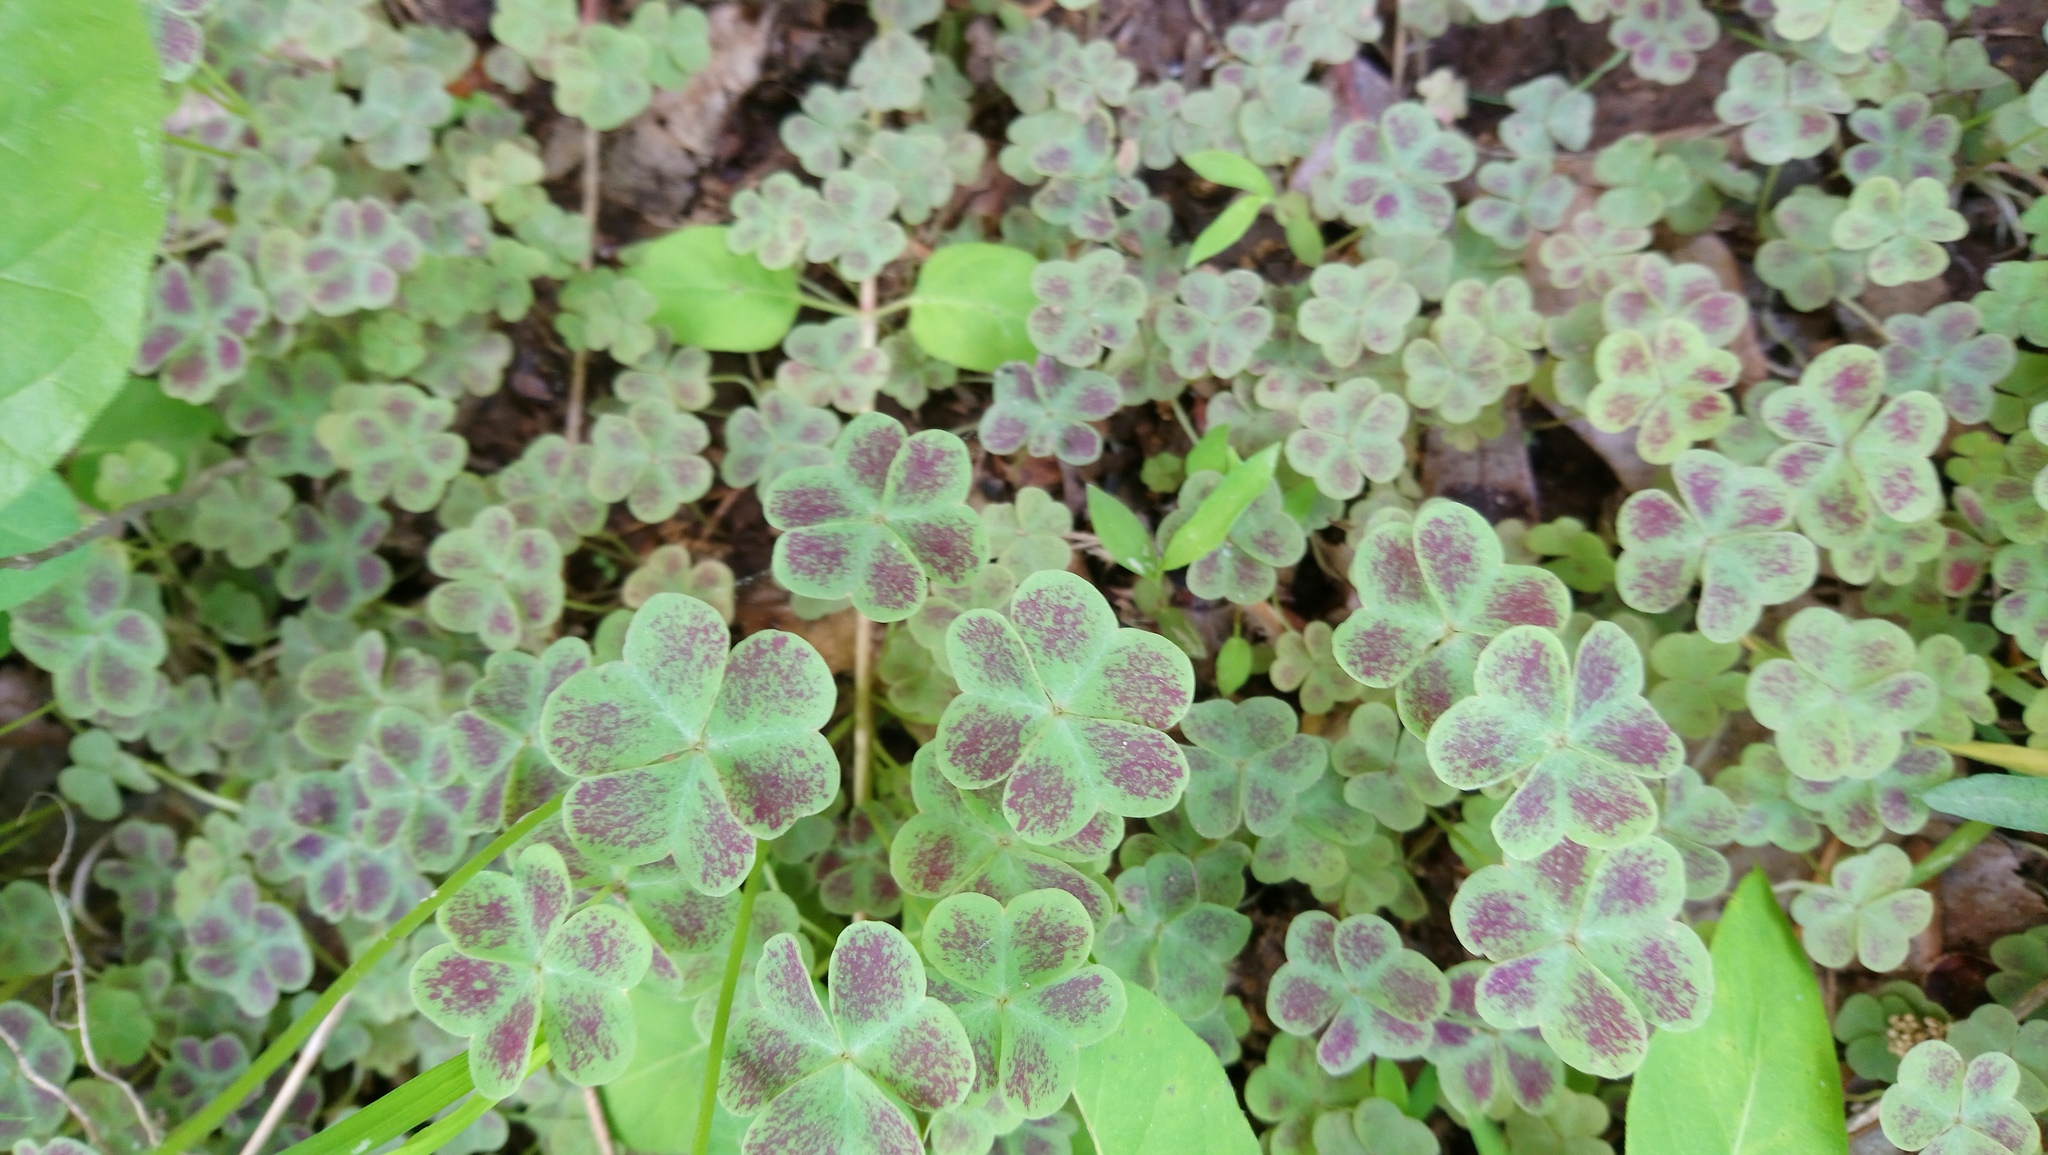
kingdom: Plantae
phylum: Tracheophyta
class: Magnoliopsida
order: Oxalidales
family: Oxalidaceae
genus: Oxalis
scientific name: Oxalis violacea
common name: Violet wood-sorrel
